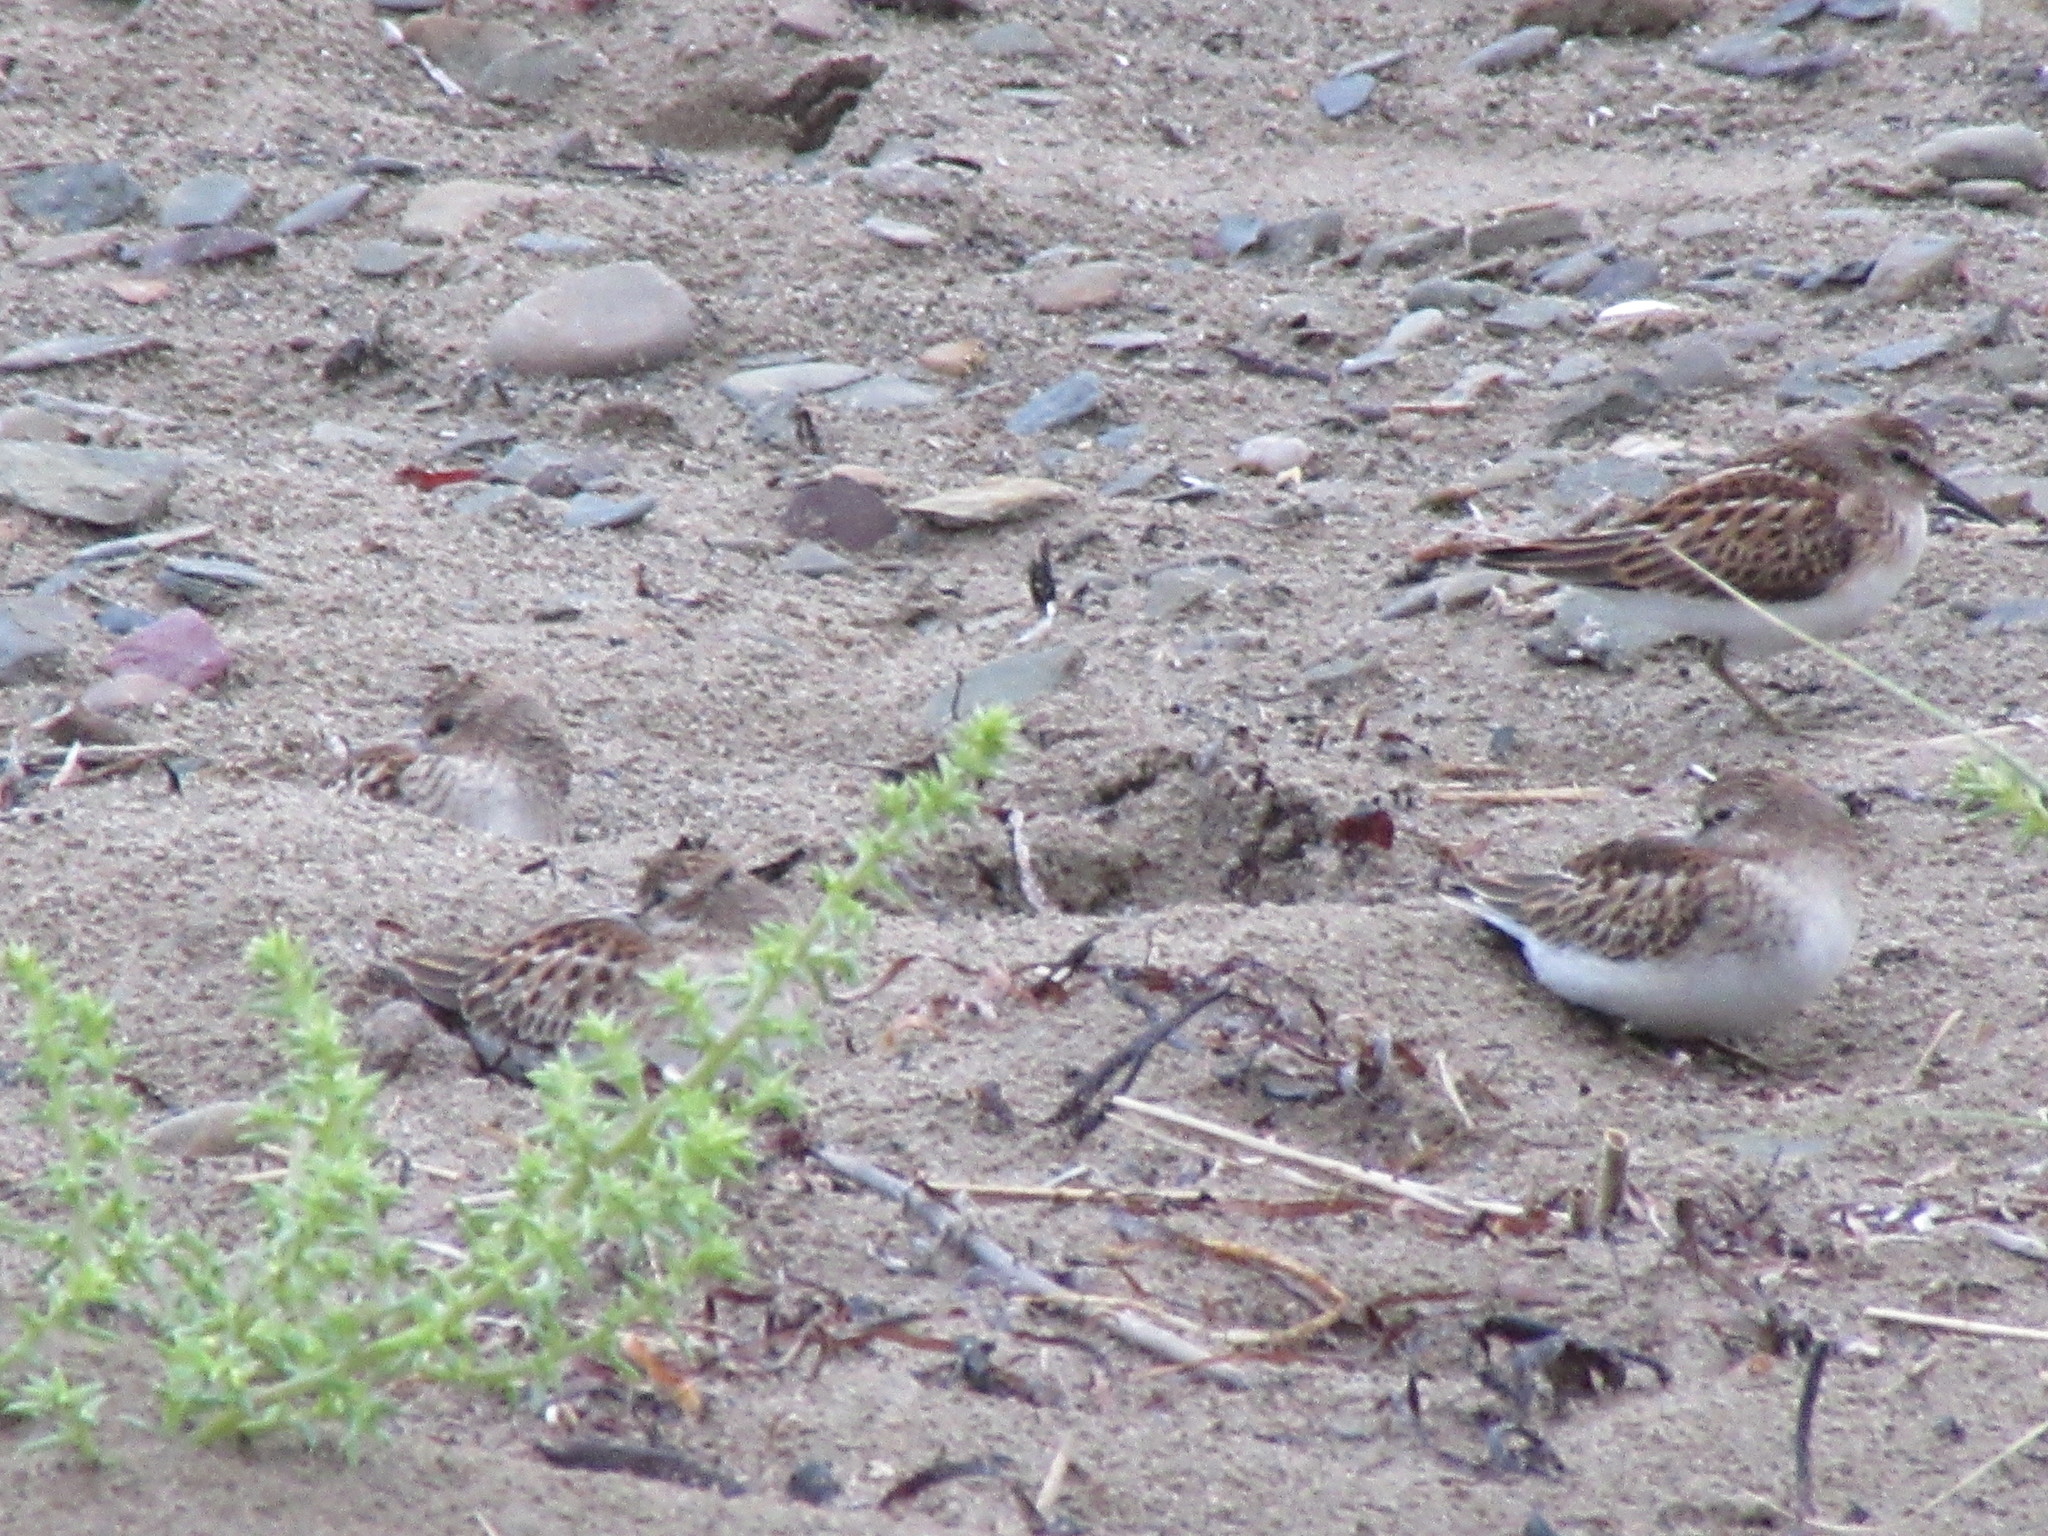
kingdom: Animalia
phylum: Chordata
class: Aves
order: Charadriiformes
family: Scolopacidae
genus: Calidris
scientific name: Calidris minutilla
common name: Least sandpiper
